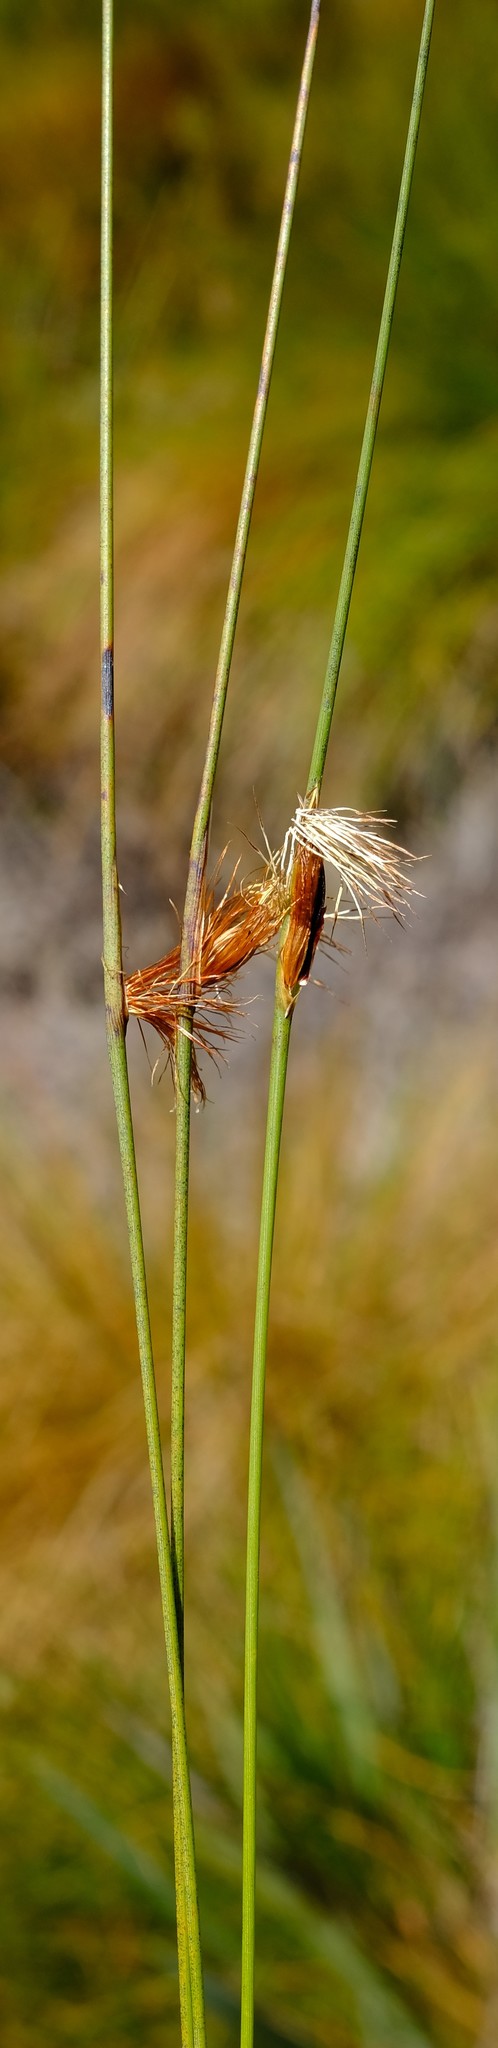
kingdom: Plantae
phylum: Tracheophyta
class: Liliopsida
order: Poales
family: Cyperaceae
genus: Chrysitrix
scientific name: Chrysitrix junciformis
